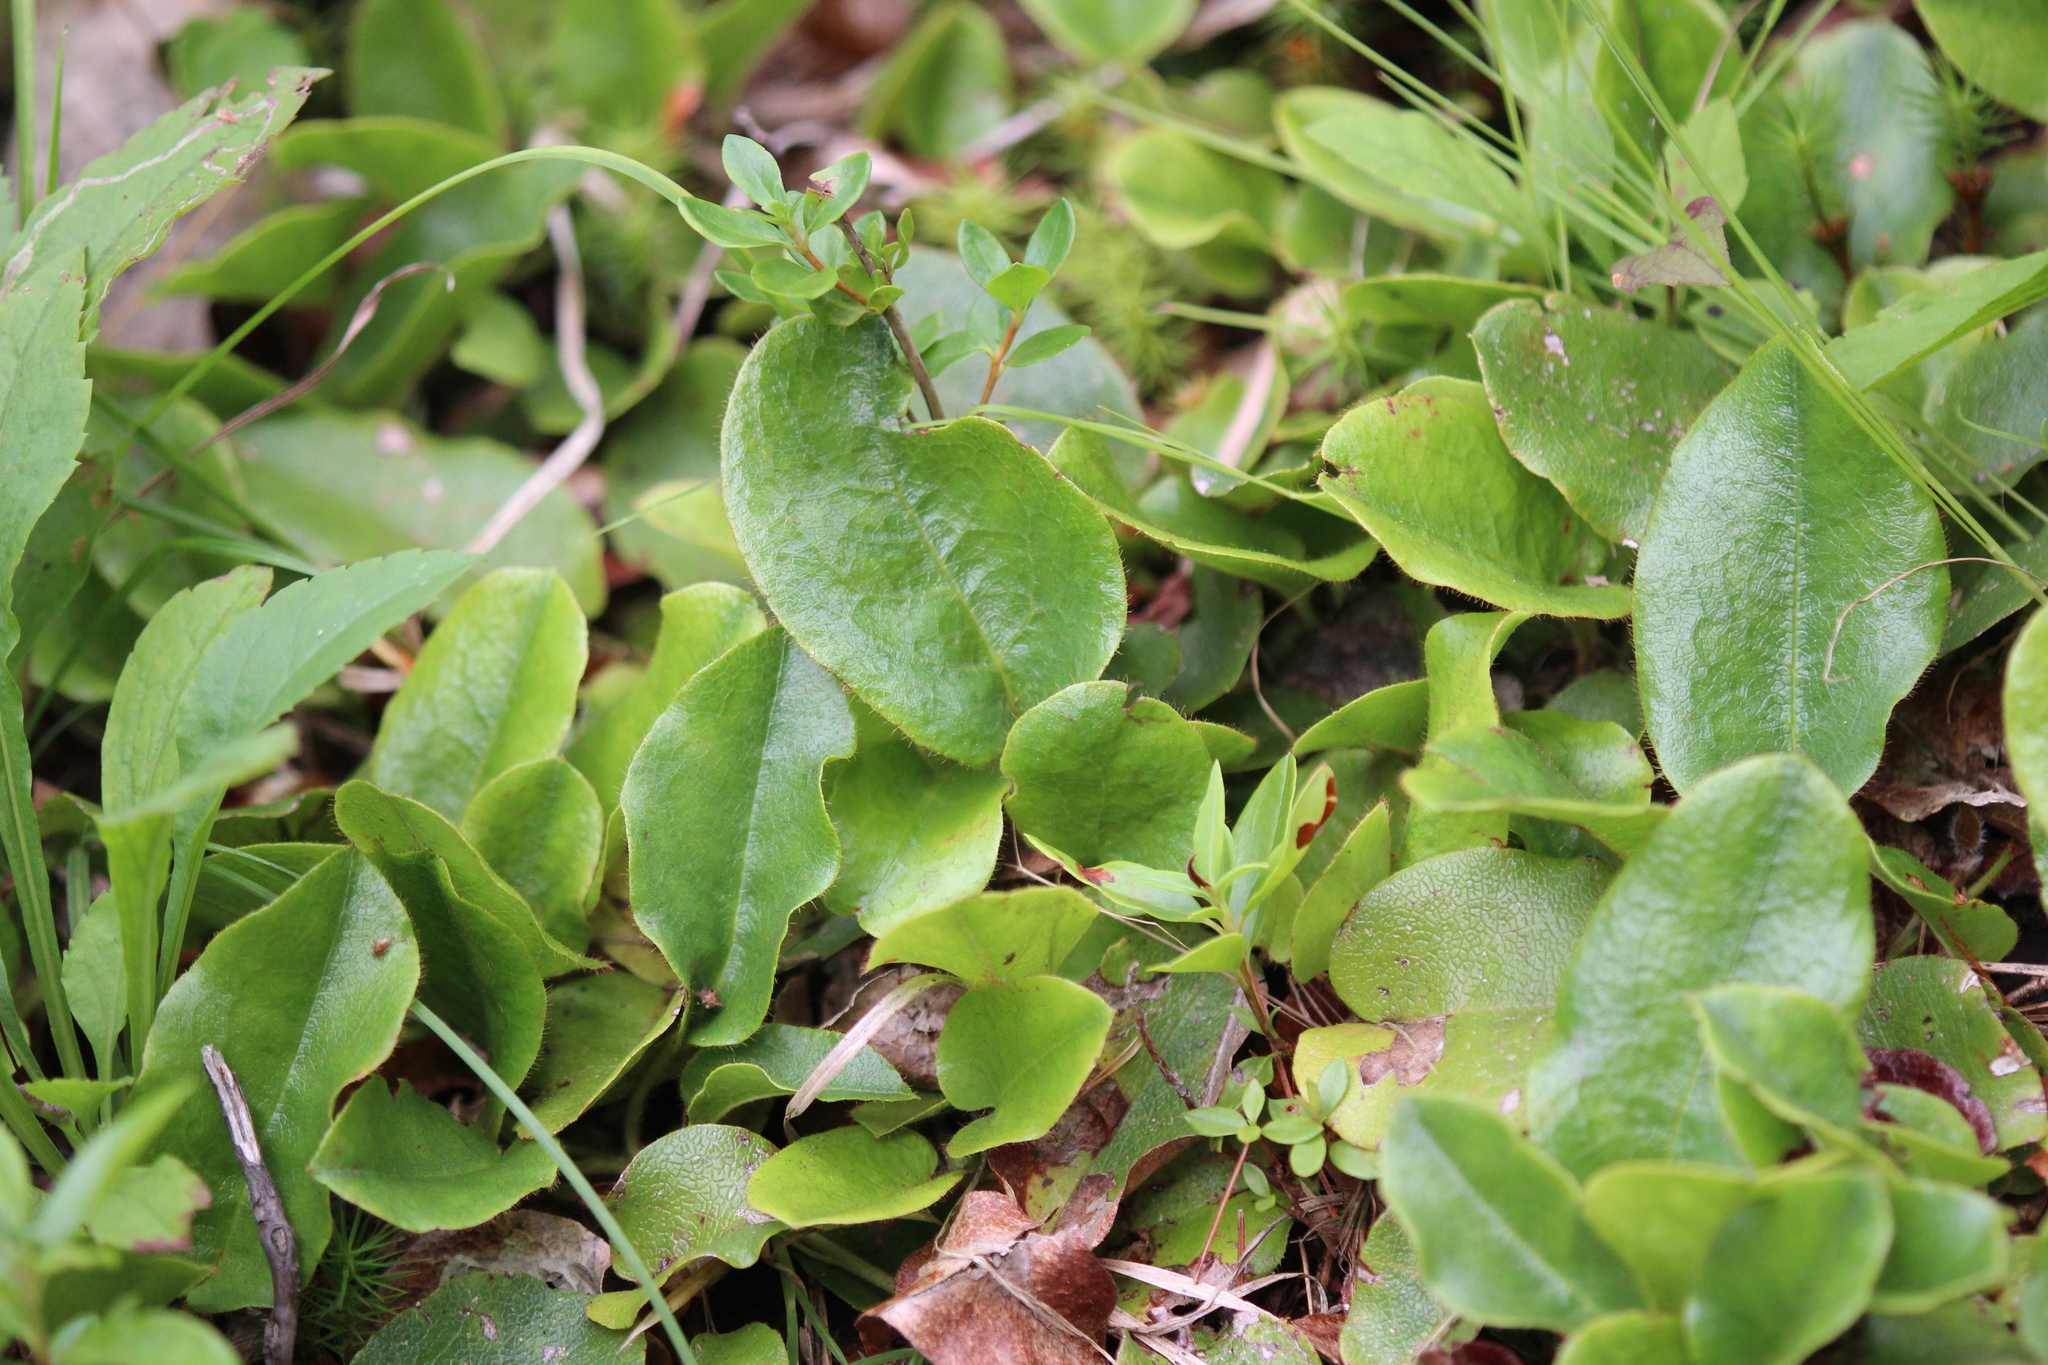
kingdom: Plantae
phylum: Tracheophyta
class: Magnoliopsida
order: Ericales
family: Ericaceae
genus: Epigaea
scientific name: Epigaea repens
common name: Gravelroot
